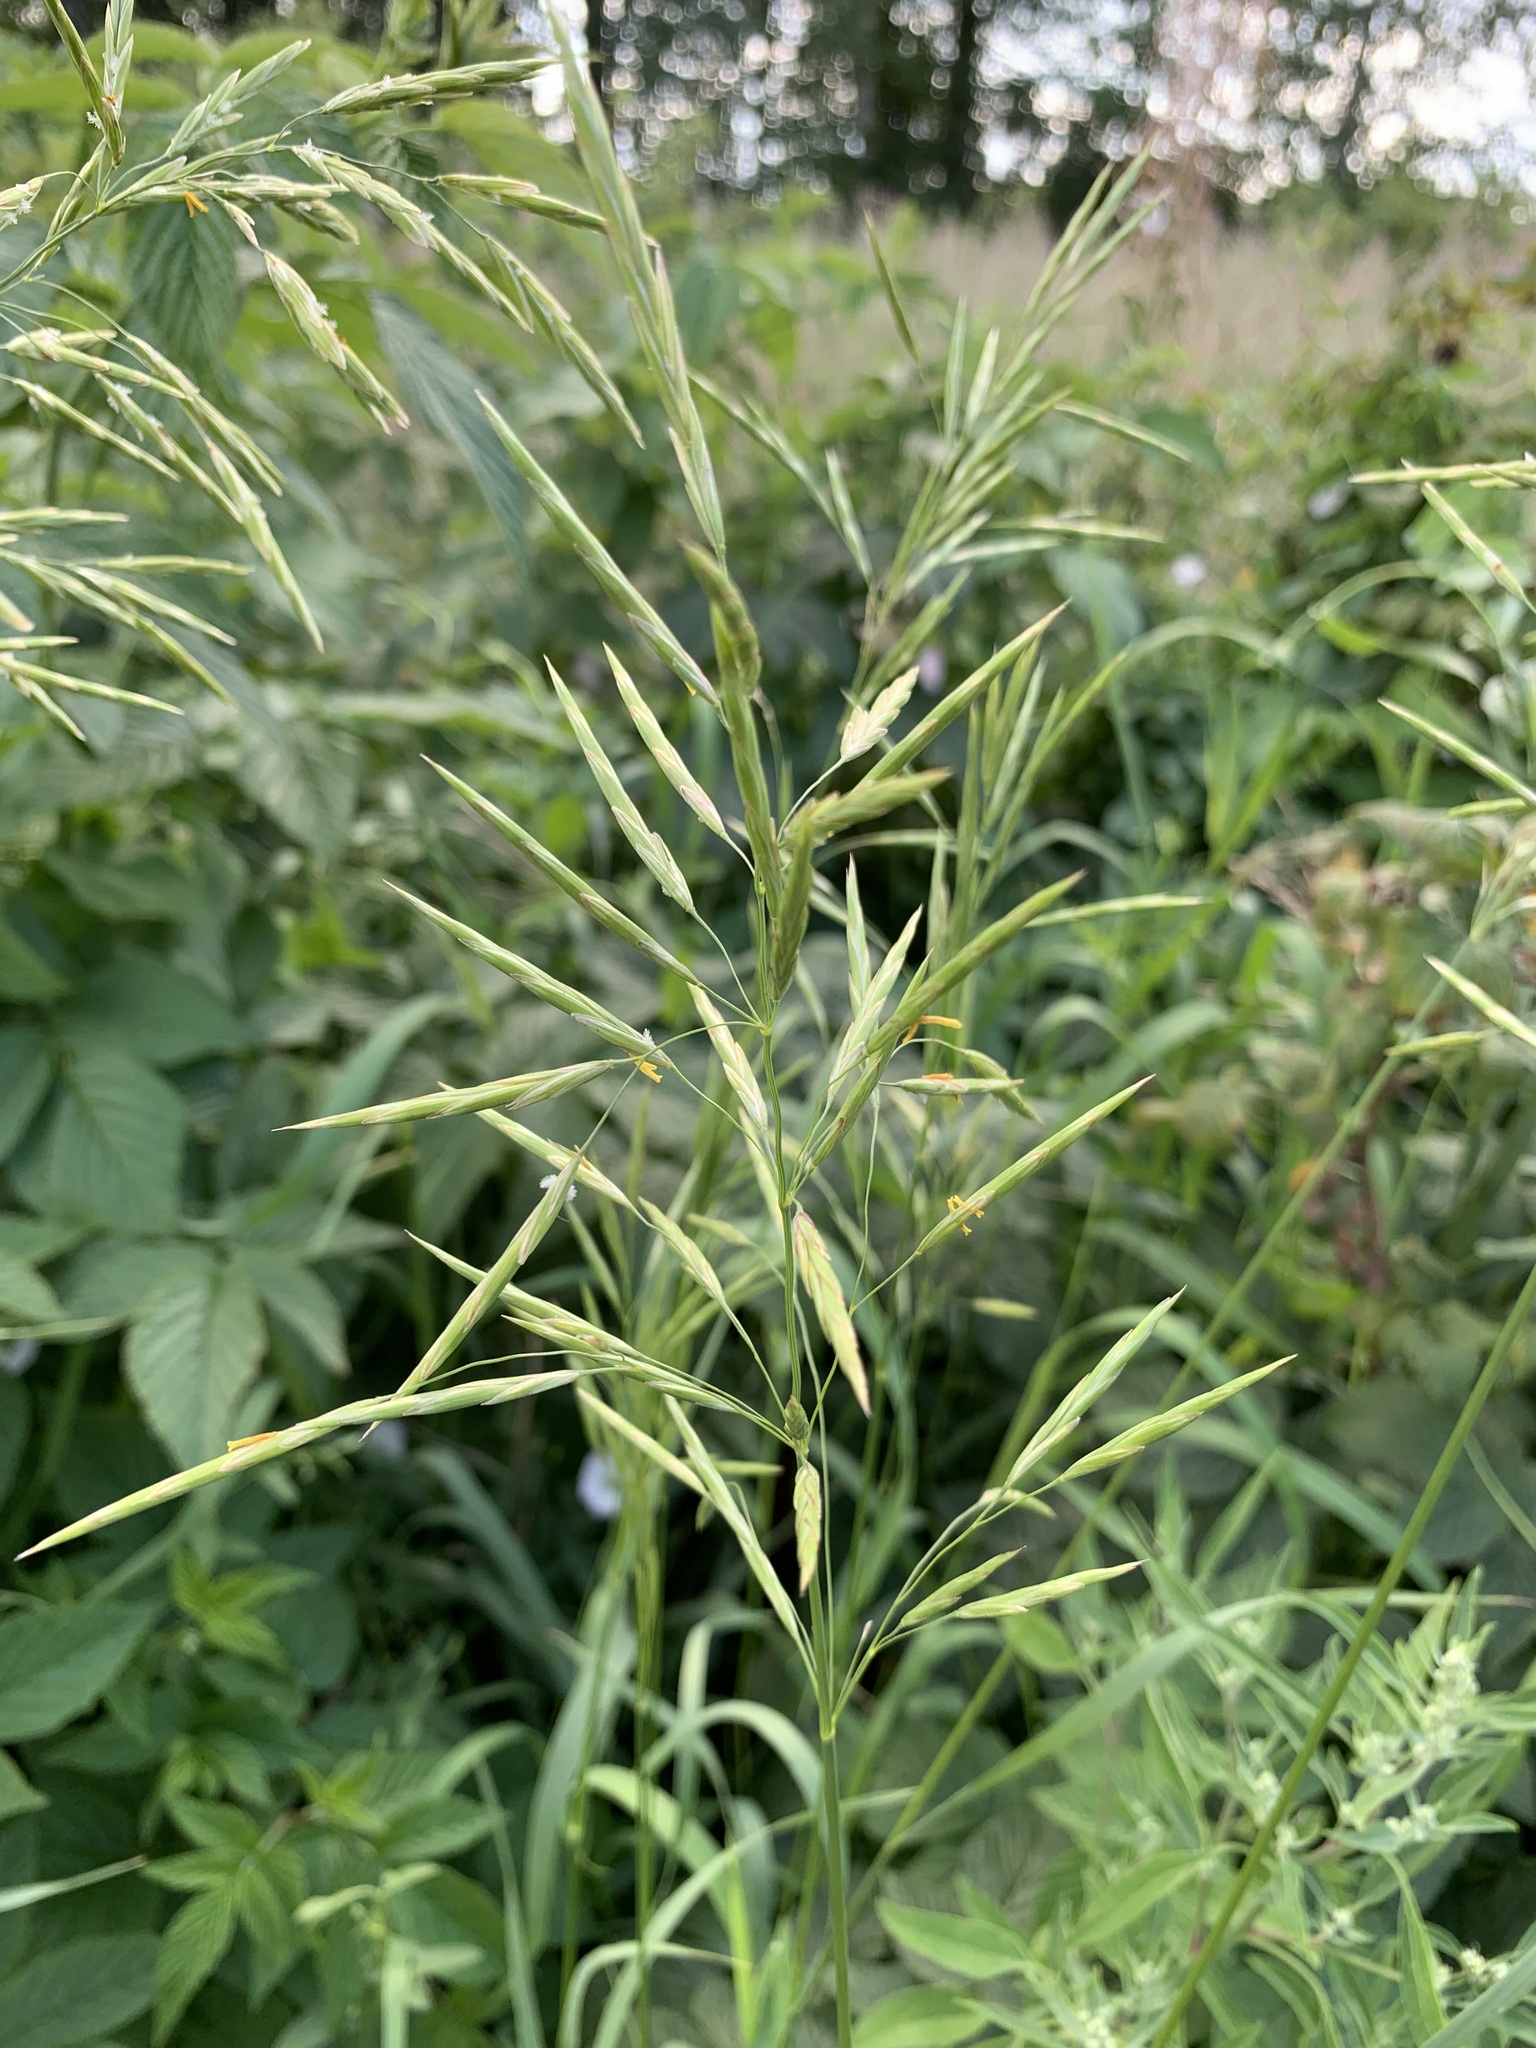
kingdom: Plantae
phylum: Tracheophyta
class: Liliopsida
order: Poales
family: Poaceae
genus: Bromus
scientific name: Bromus inermis
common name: Smooth brome
